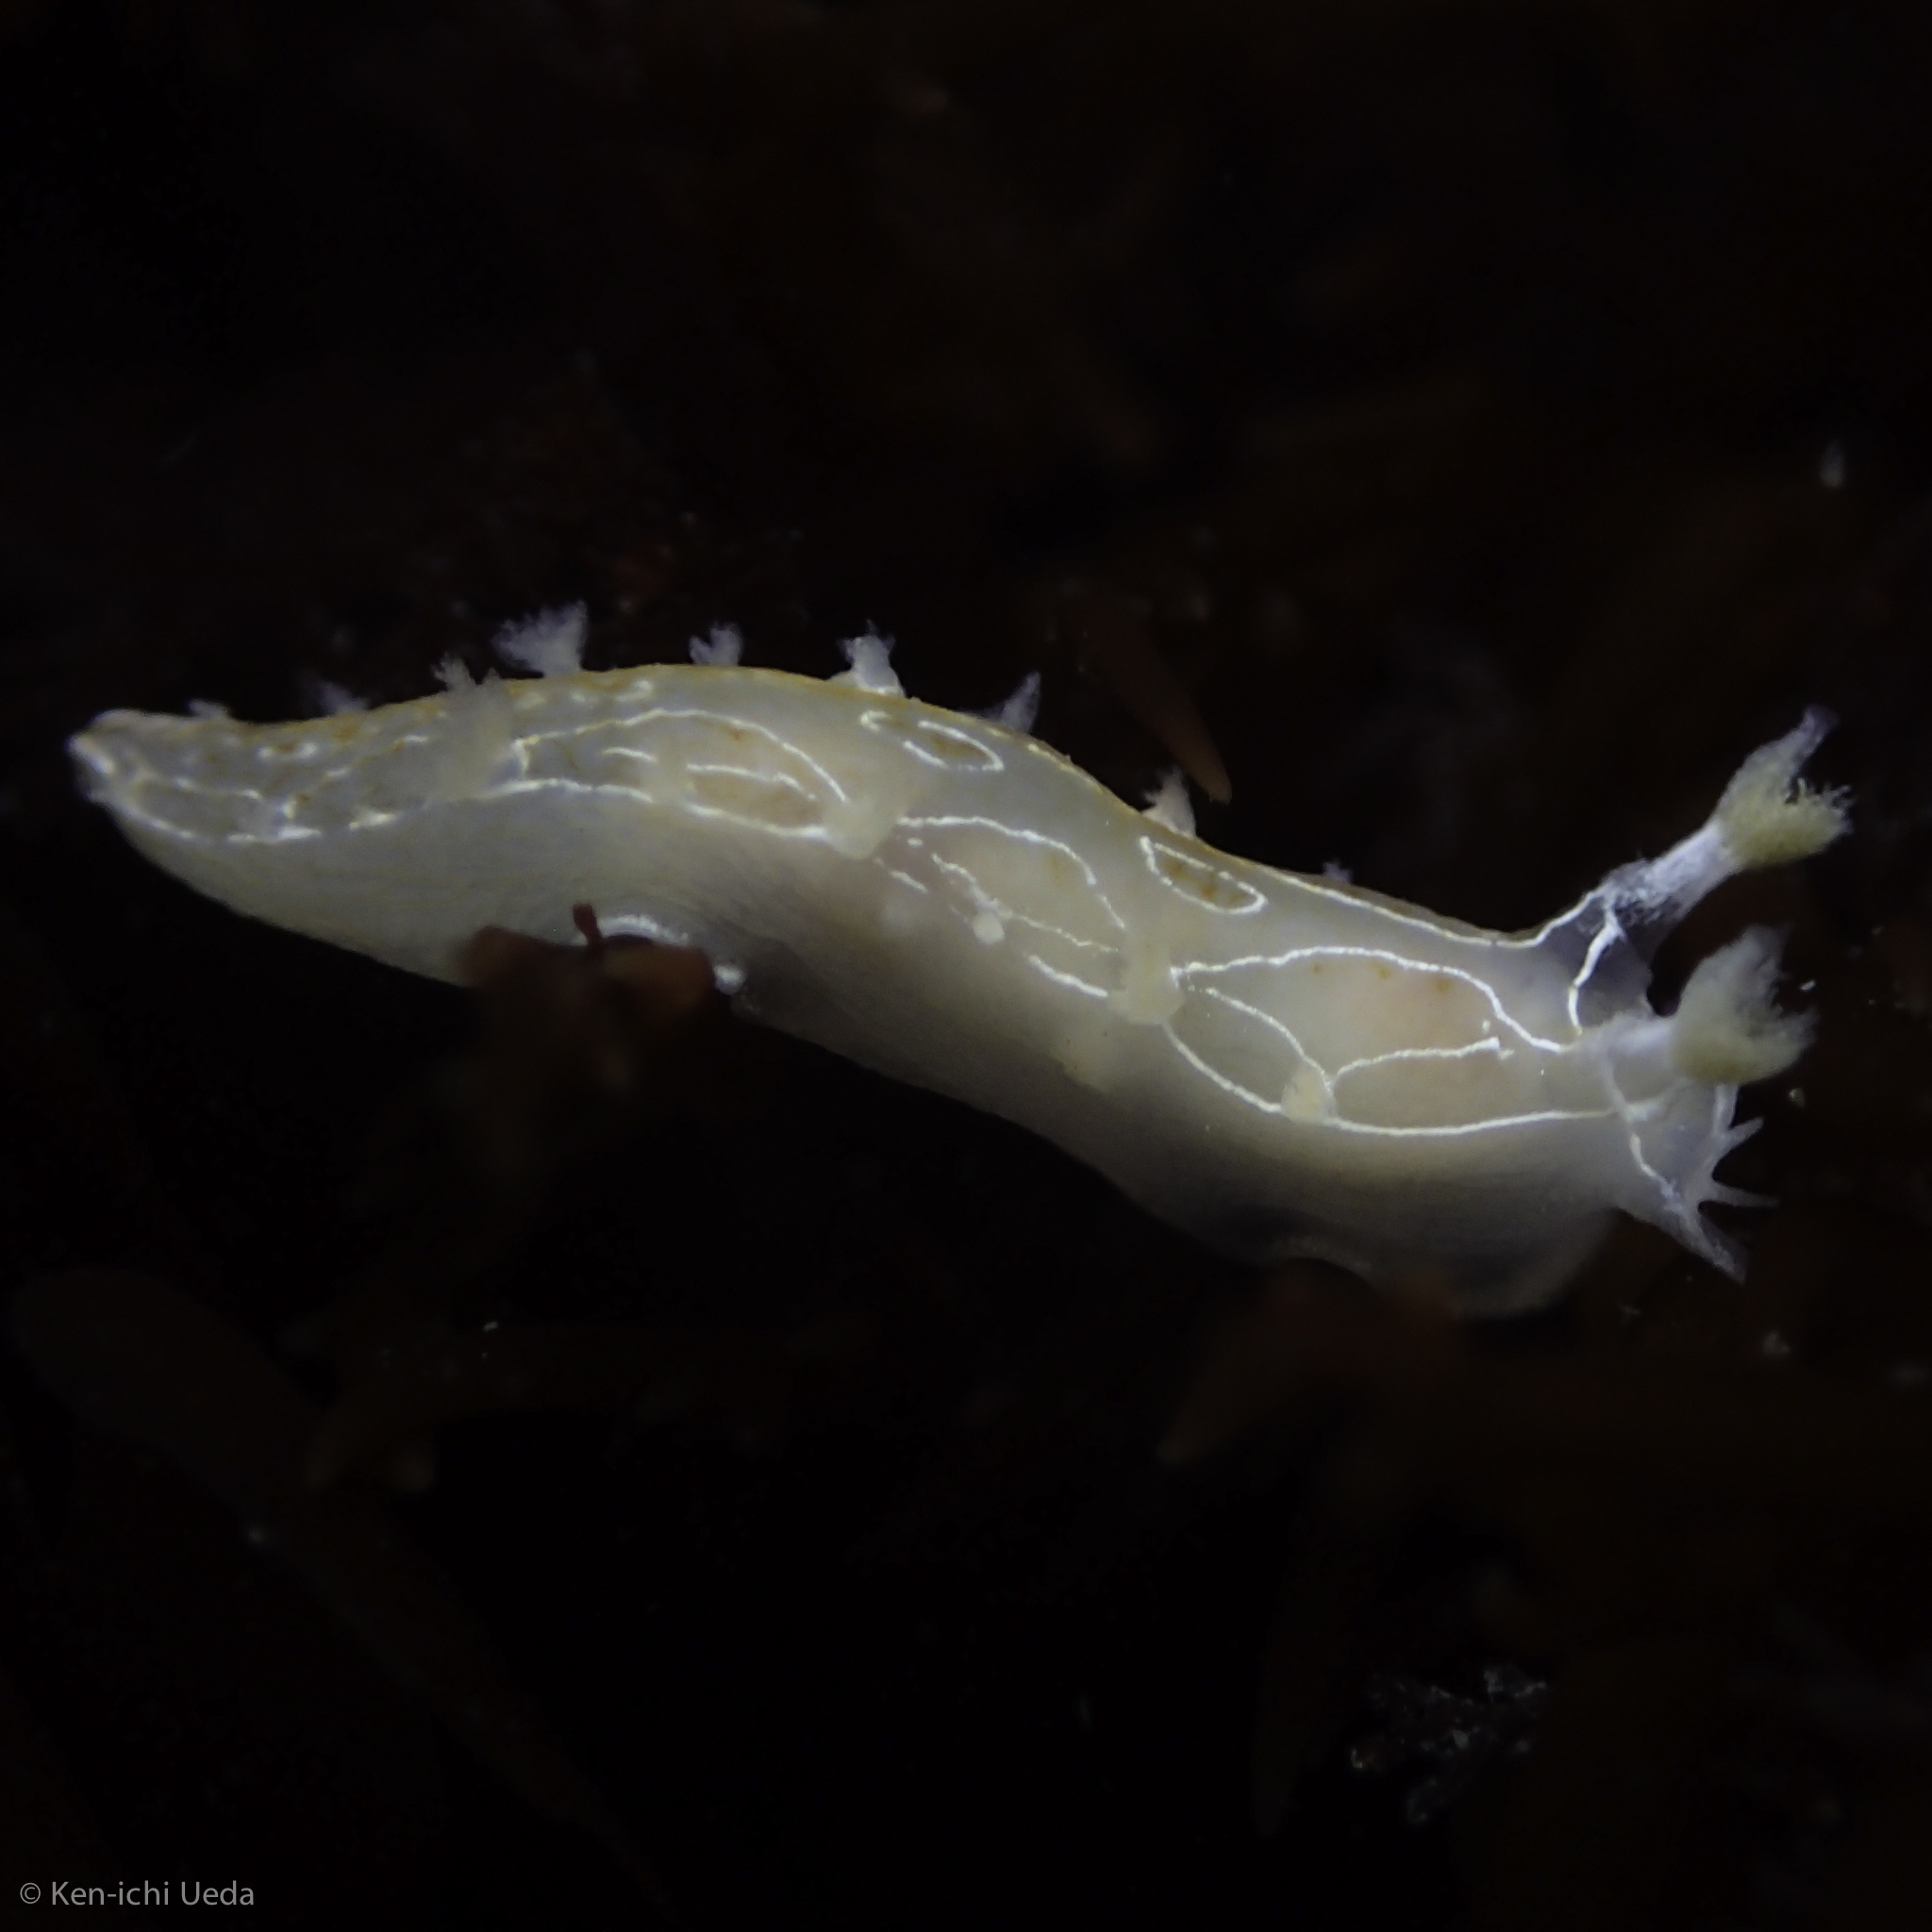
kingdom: Animalia
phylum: Mollusca
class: Gastropoda
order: Nudibranchia
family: Tritoniidae
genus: Tritonia
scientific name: Tritonia festiva
